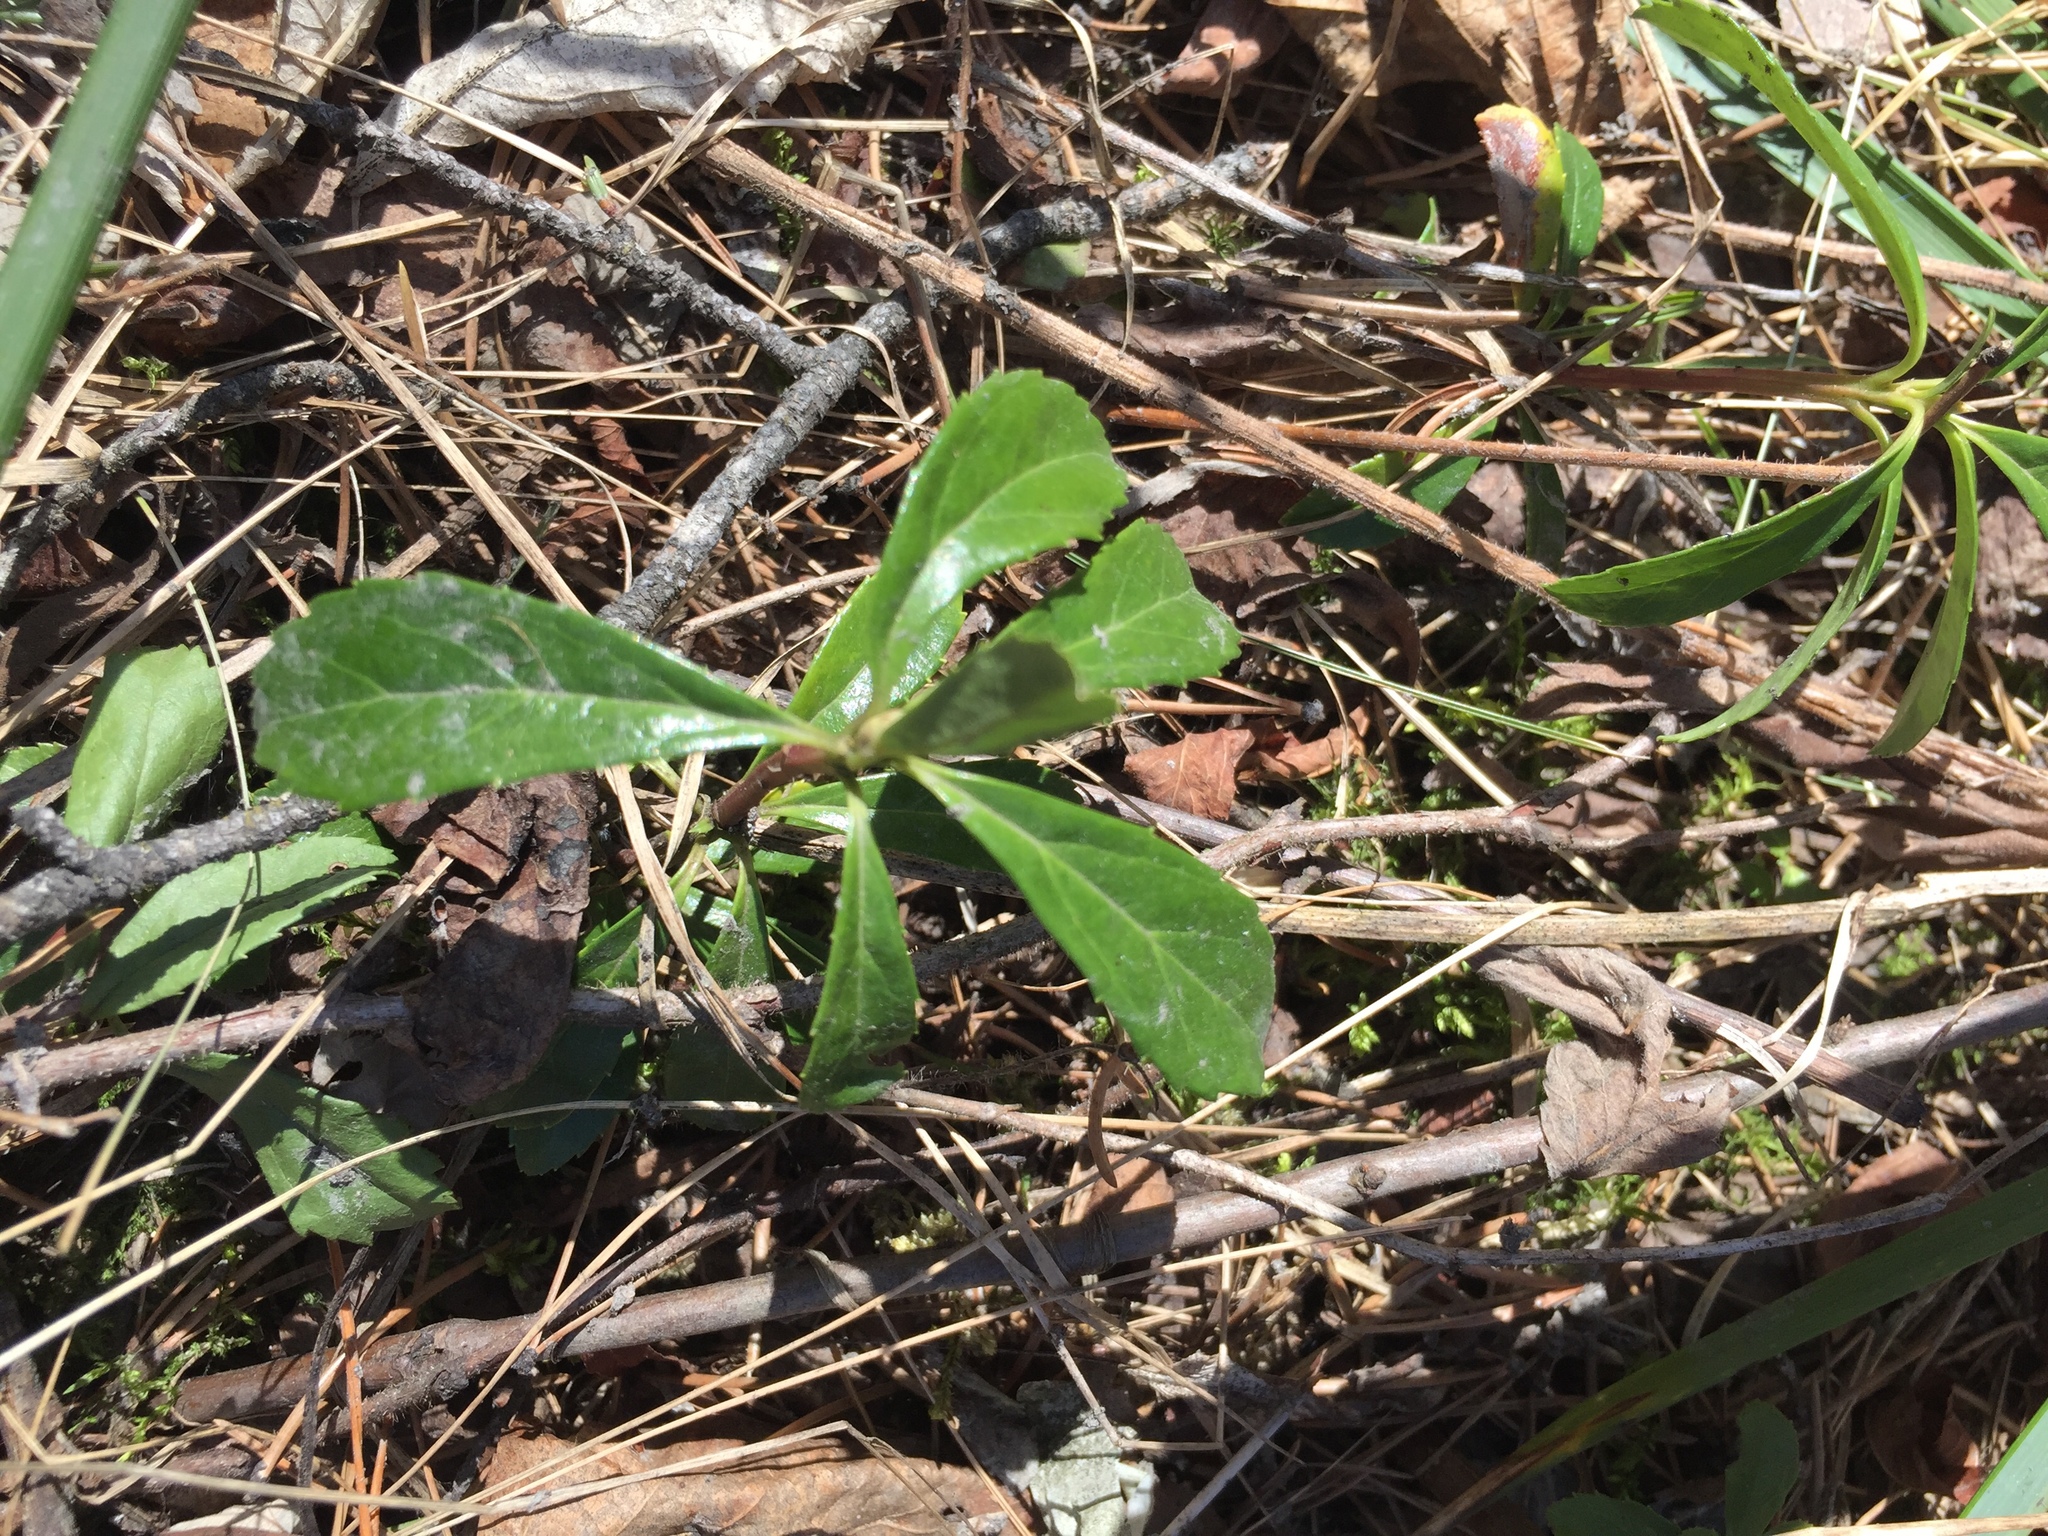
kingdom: Plantae
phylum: Tracheophyta
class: Magnoliopsida
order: Ericales
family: Ericaceae
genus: Chimaphila
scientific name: Chimaphila umbellata
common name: Pipsissewa
